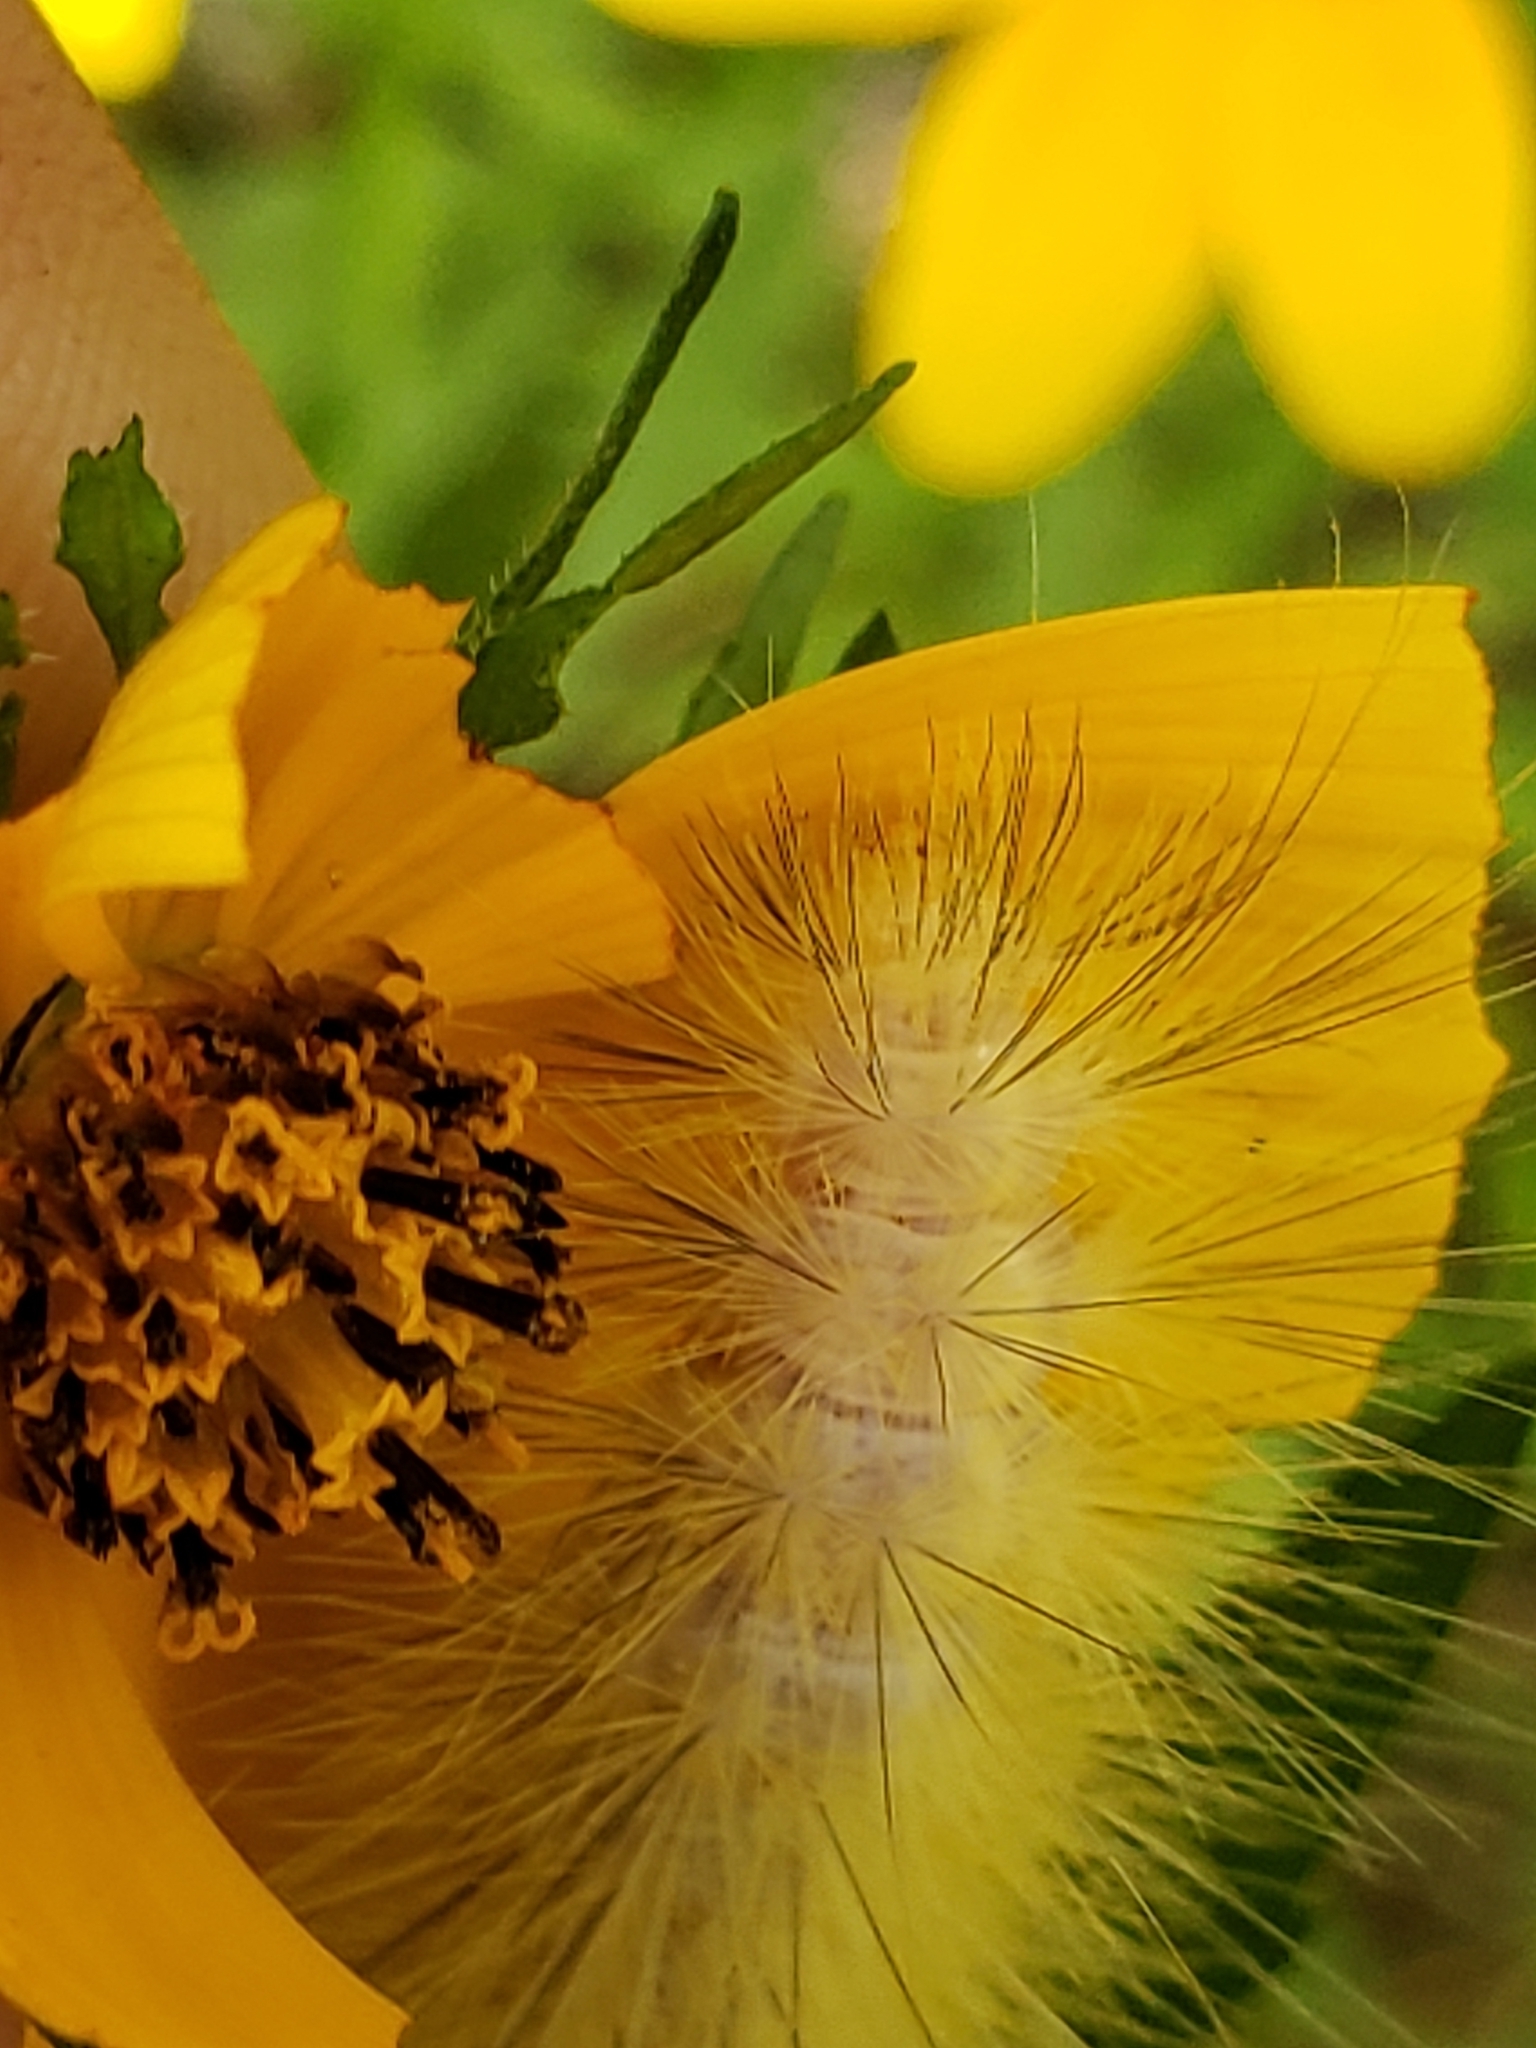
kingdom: Animalia
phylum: Arthropoda
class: Insecta
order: Lepidoptera
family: Erebidae
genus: Spilosoma
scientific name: Spilosoma virginica
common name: Virginia tiger moth
